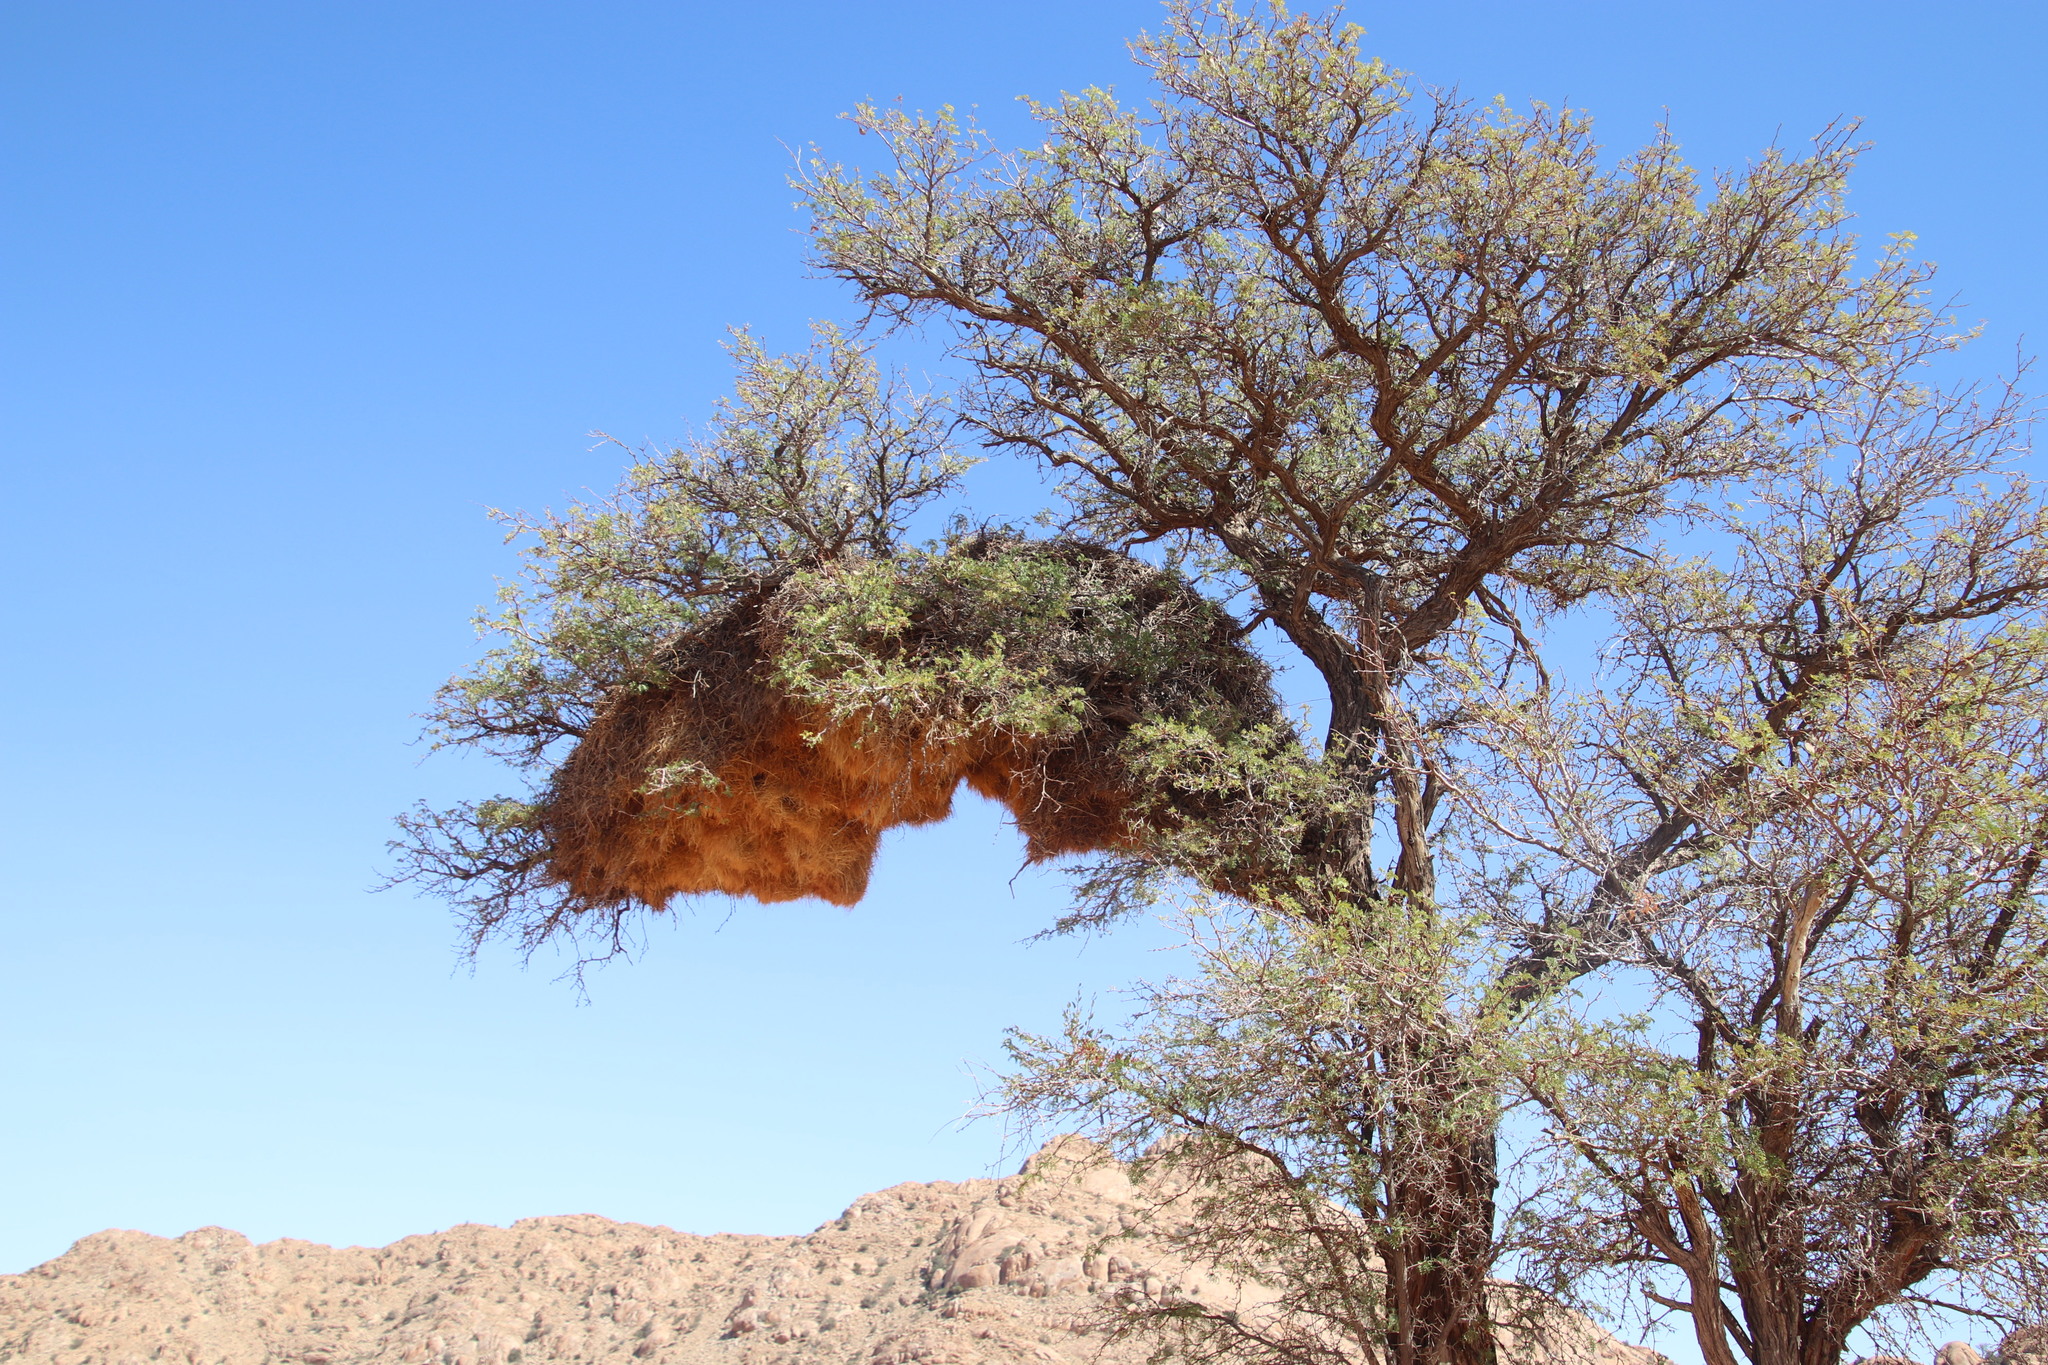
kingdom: Animalia
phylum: Chordata
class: Aves
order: Passeriformes
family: Passeridae
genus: Philetairus
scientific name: Philetairus socius
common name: Sociable weaver
